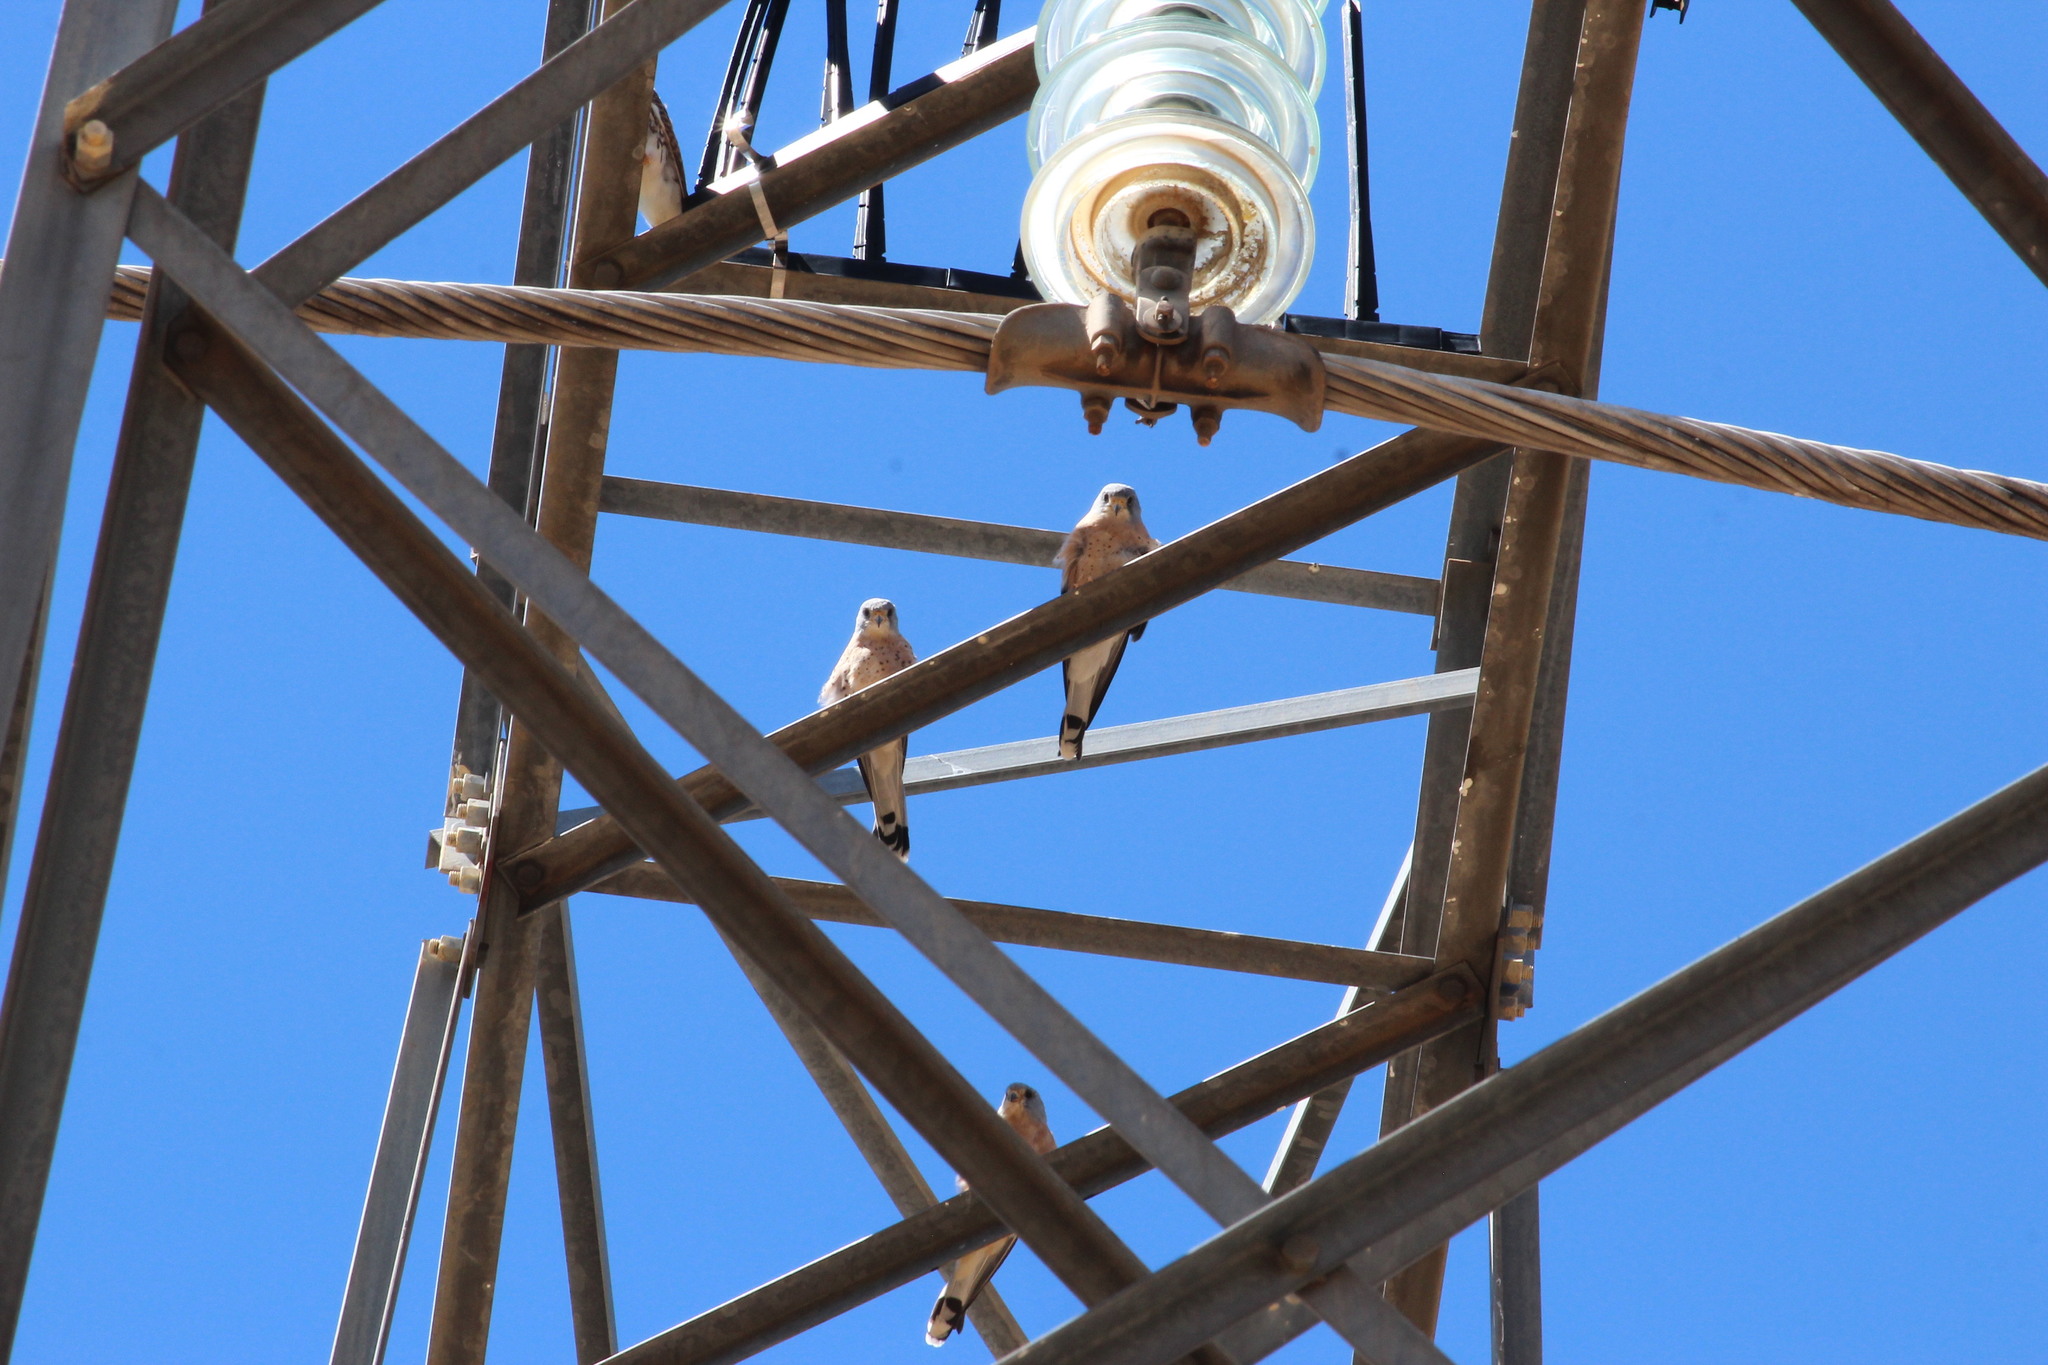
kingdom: Animalia
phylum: Chordata
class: Aves
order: Falconiformes
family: Falconidae
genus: Falco
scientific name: Falco naumanni
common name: Lesser kestrel
